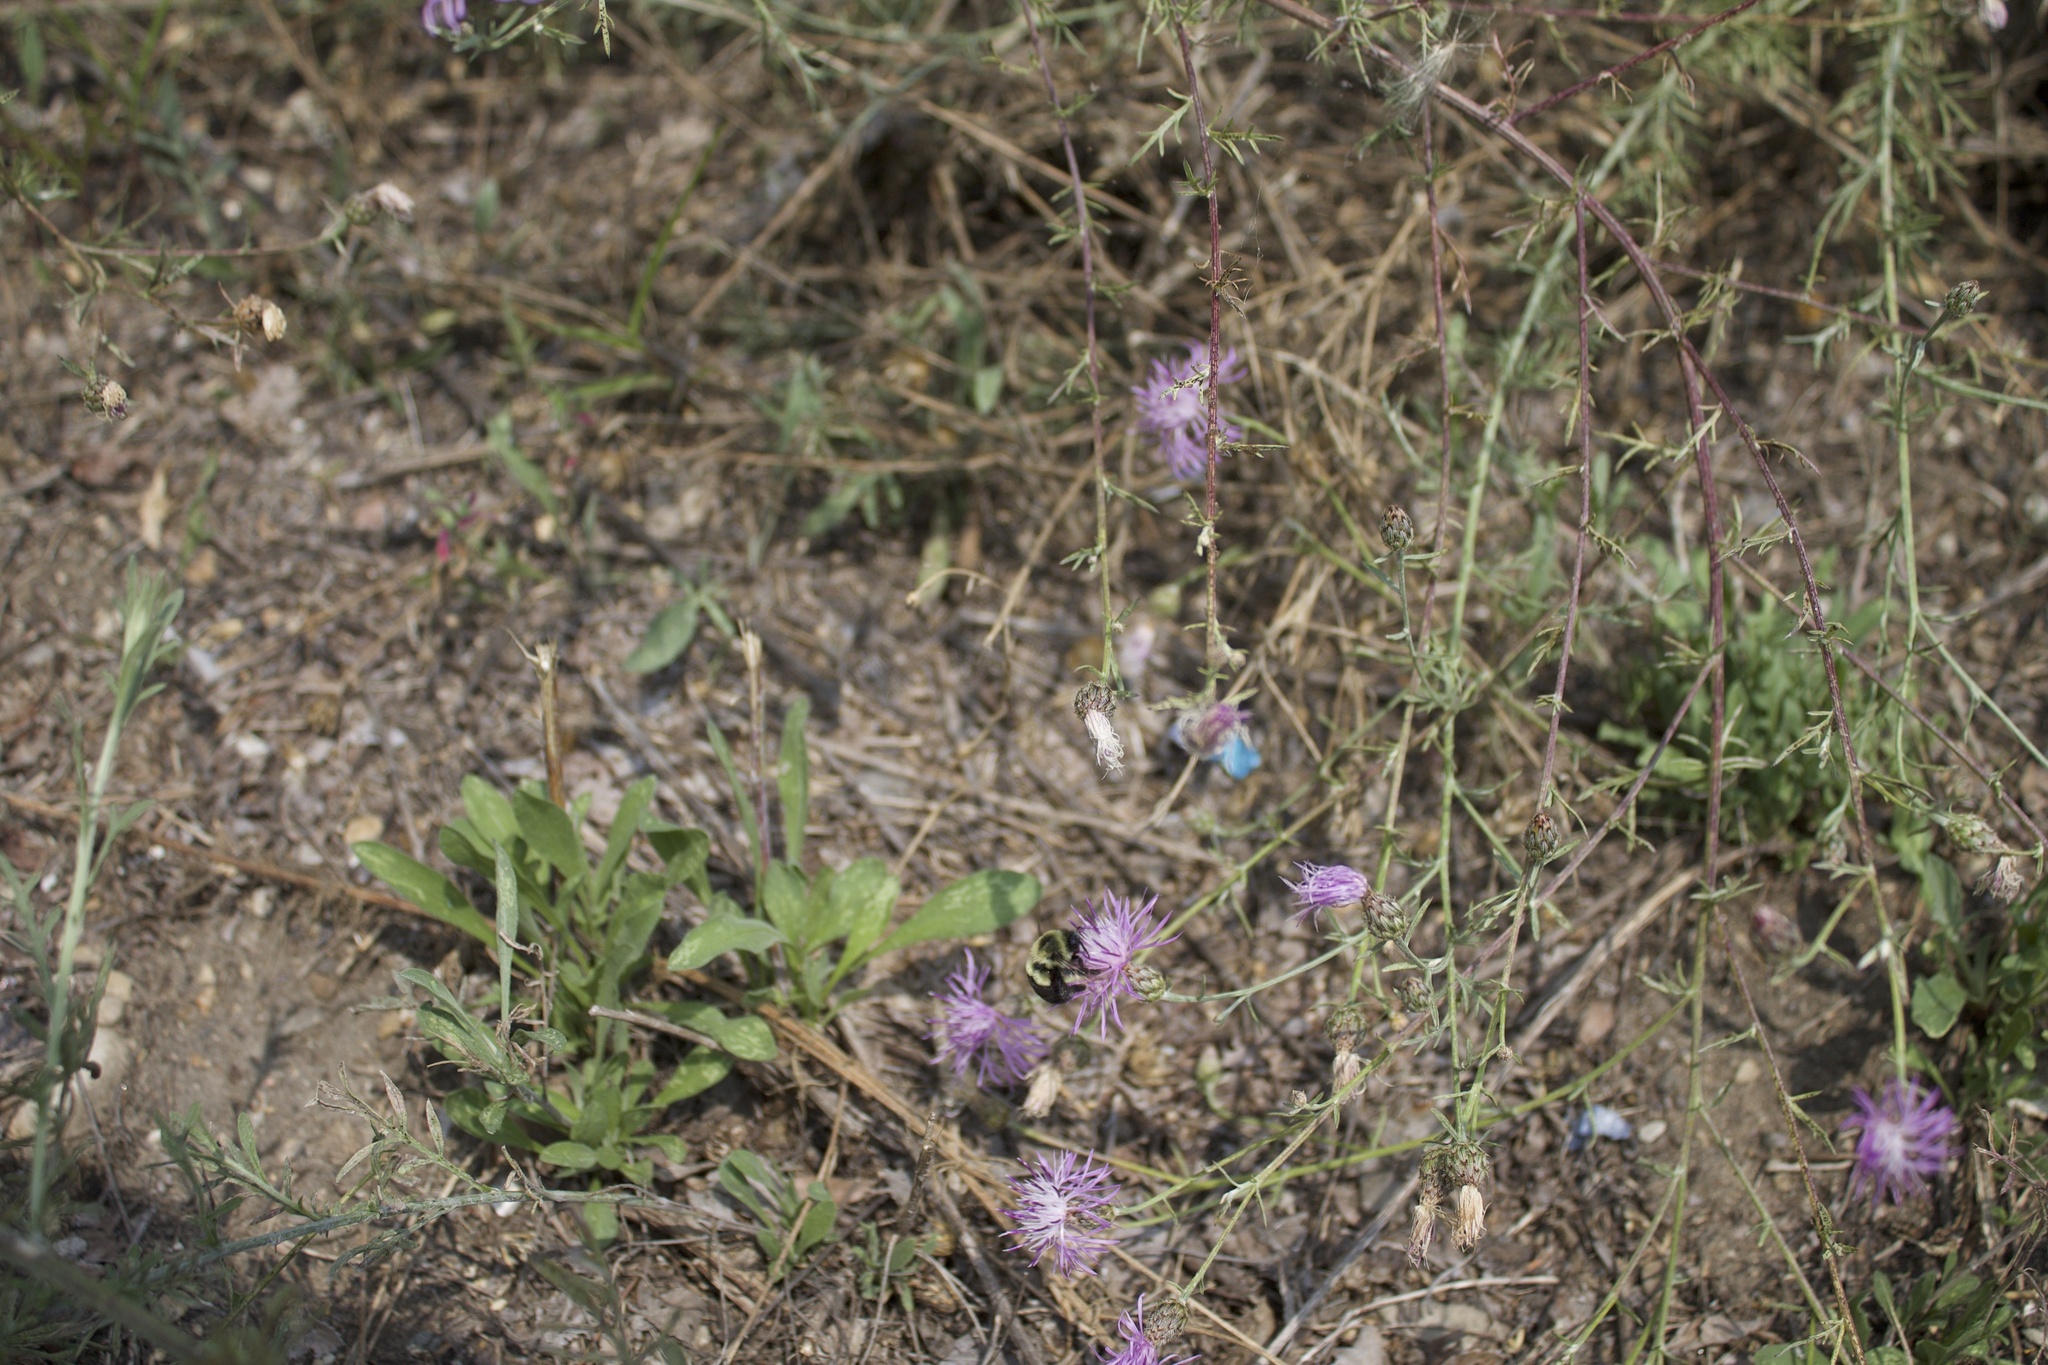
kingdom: Animalia
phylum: Arthropoda
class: Insecta
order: Hymenoptera
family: Apidae
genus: Bombus
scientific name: Bombus impatiens
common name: Common eastern bumble bee
